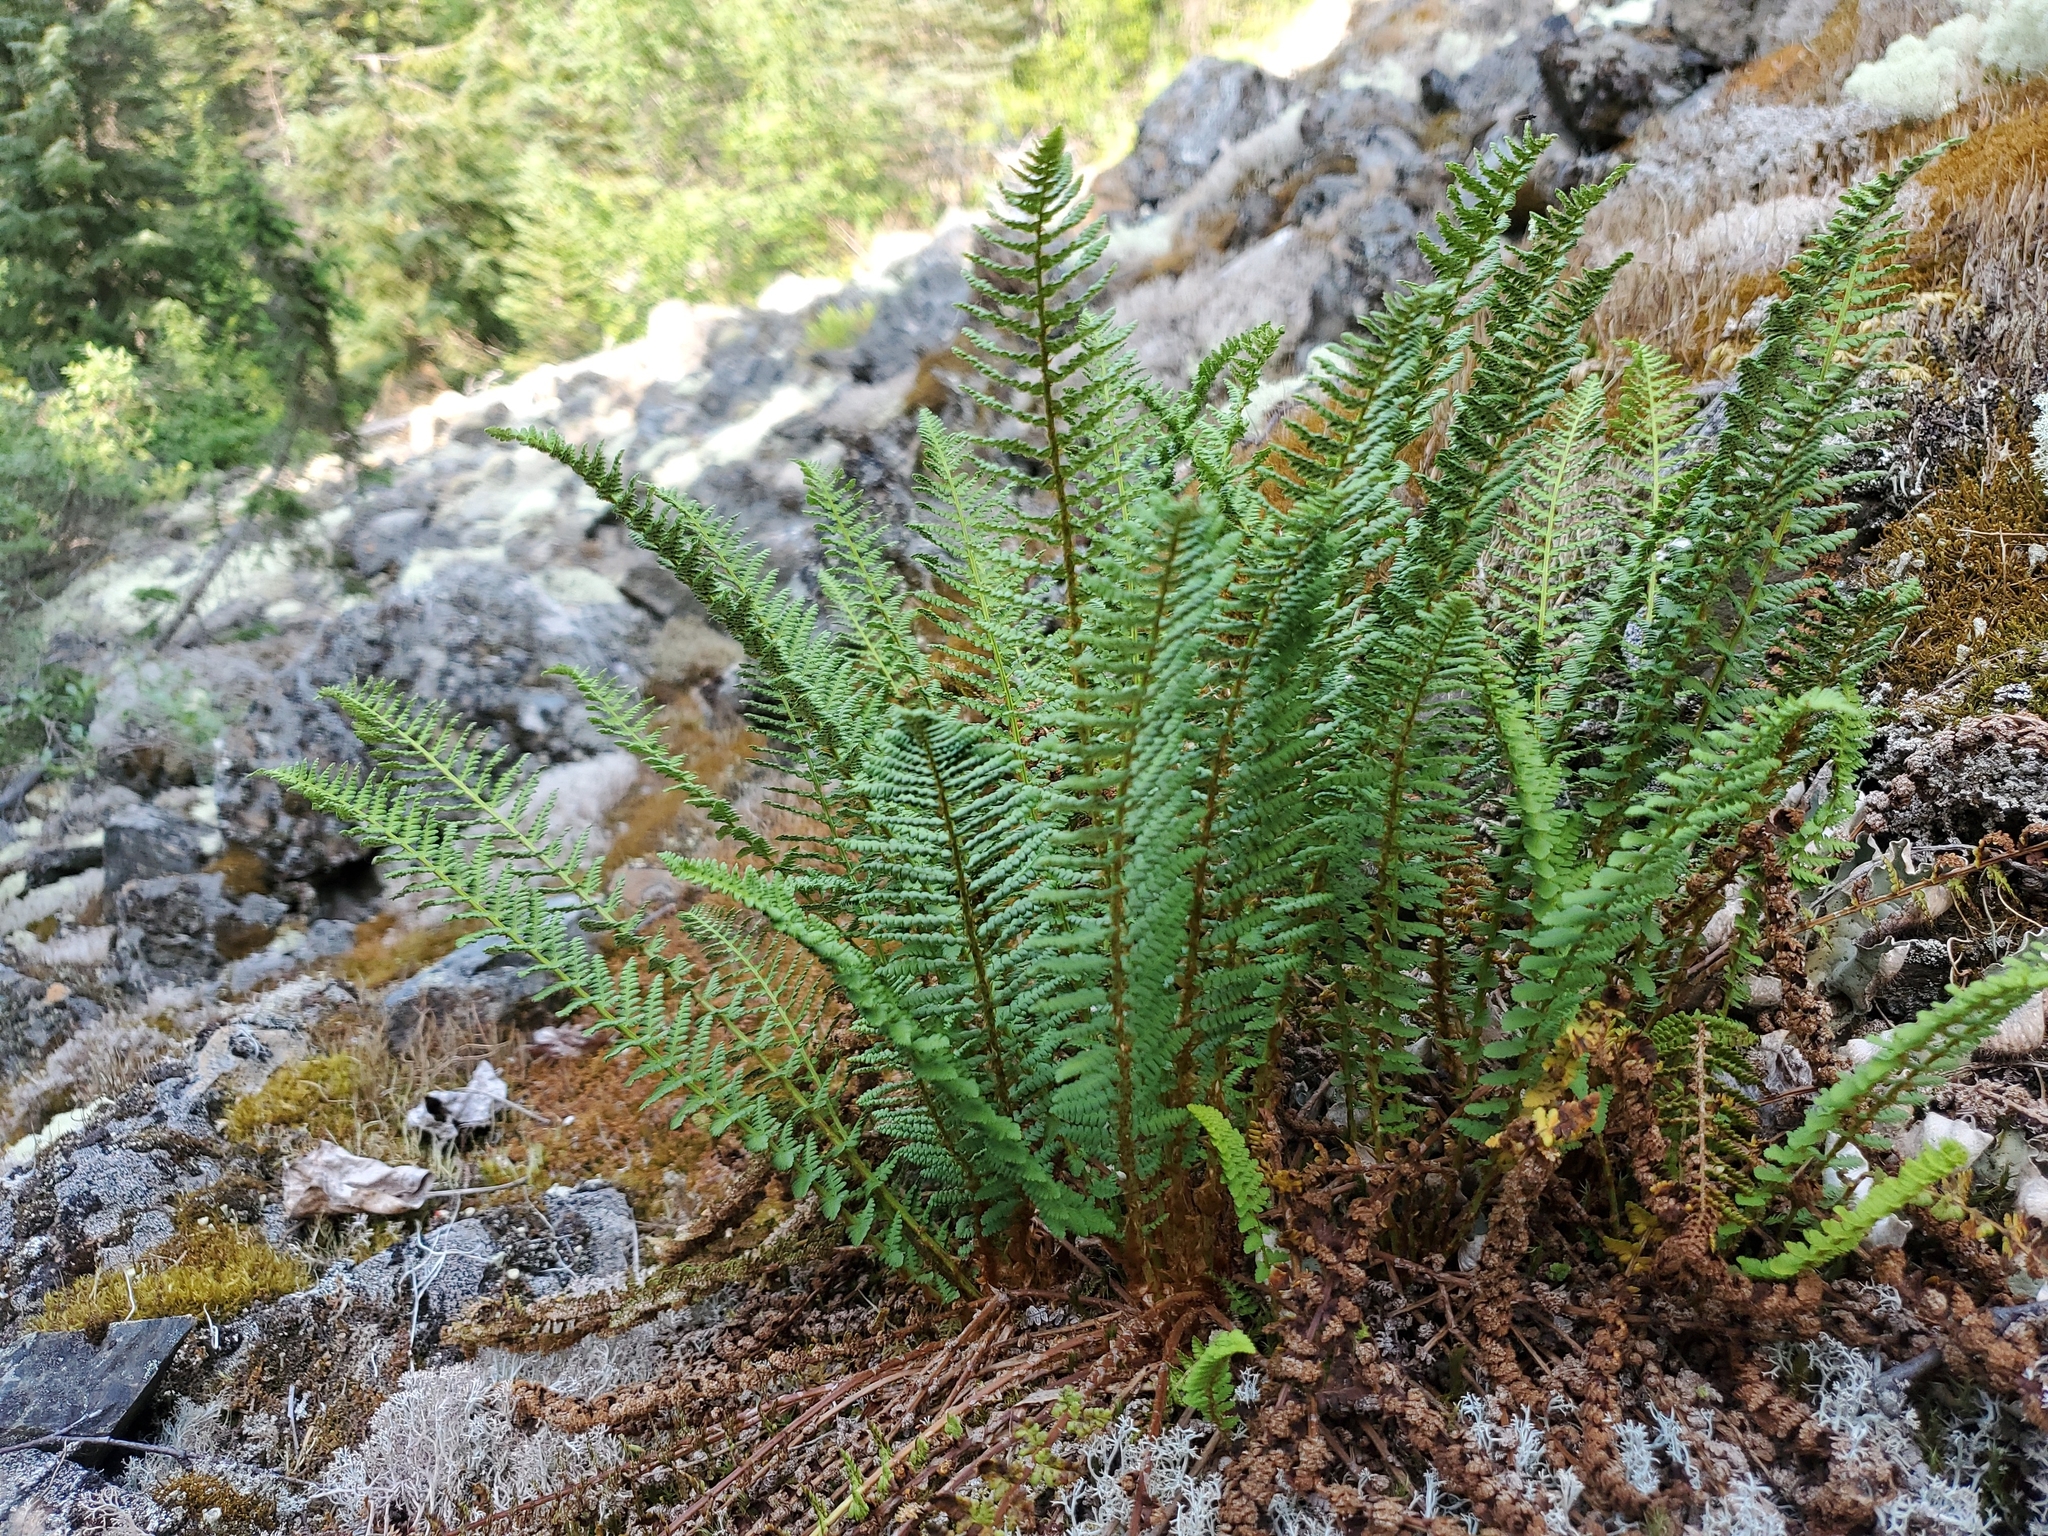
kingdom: Plantae
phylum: Tracheophyta
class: Polypodiopsida
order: Polypodiales
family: Dryopteridaceae
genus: Dryopteris
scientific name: Dryopteris fragrans
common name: Fragrant wood fern
